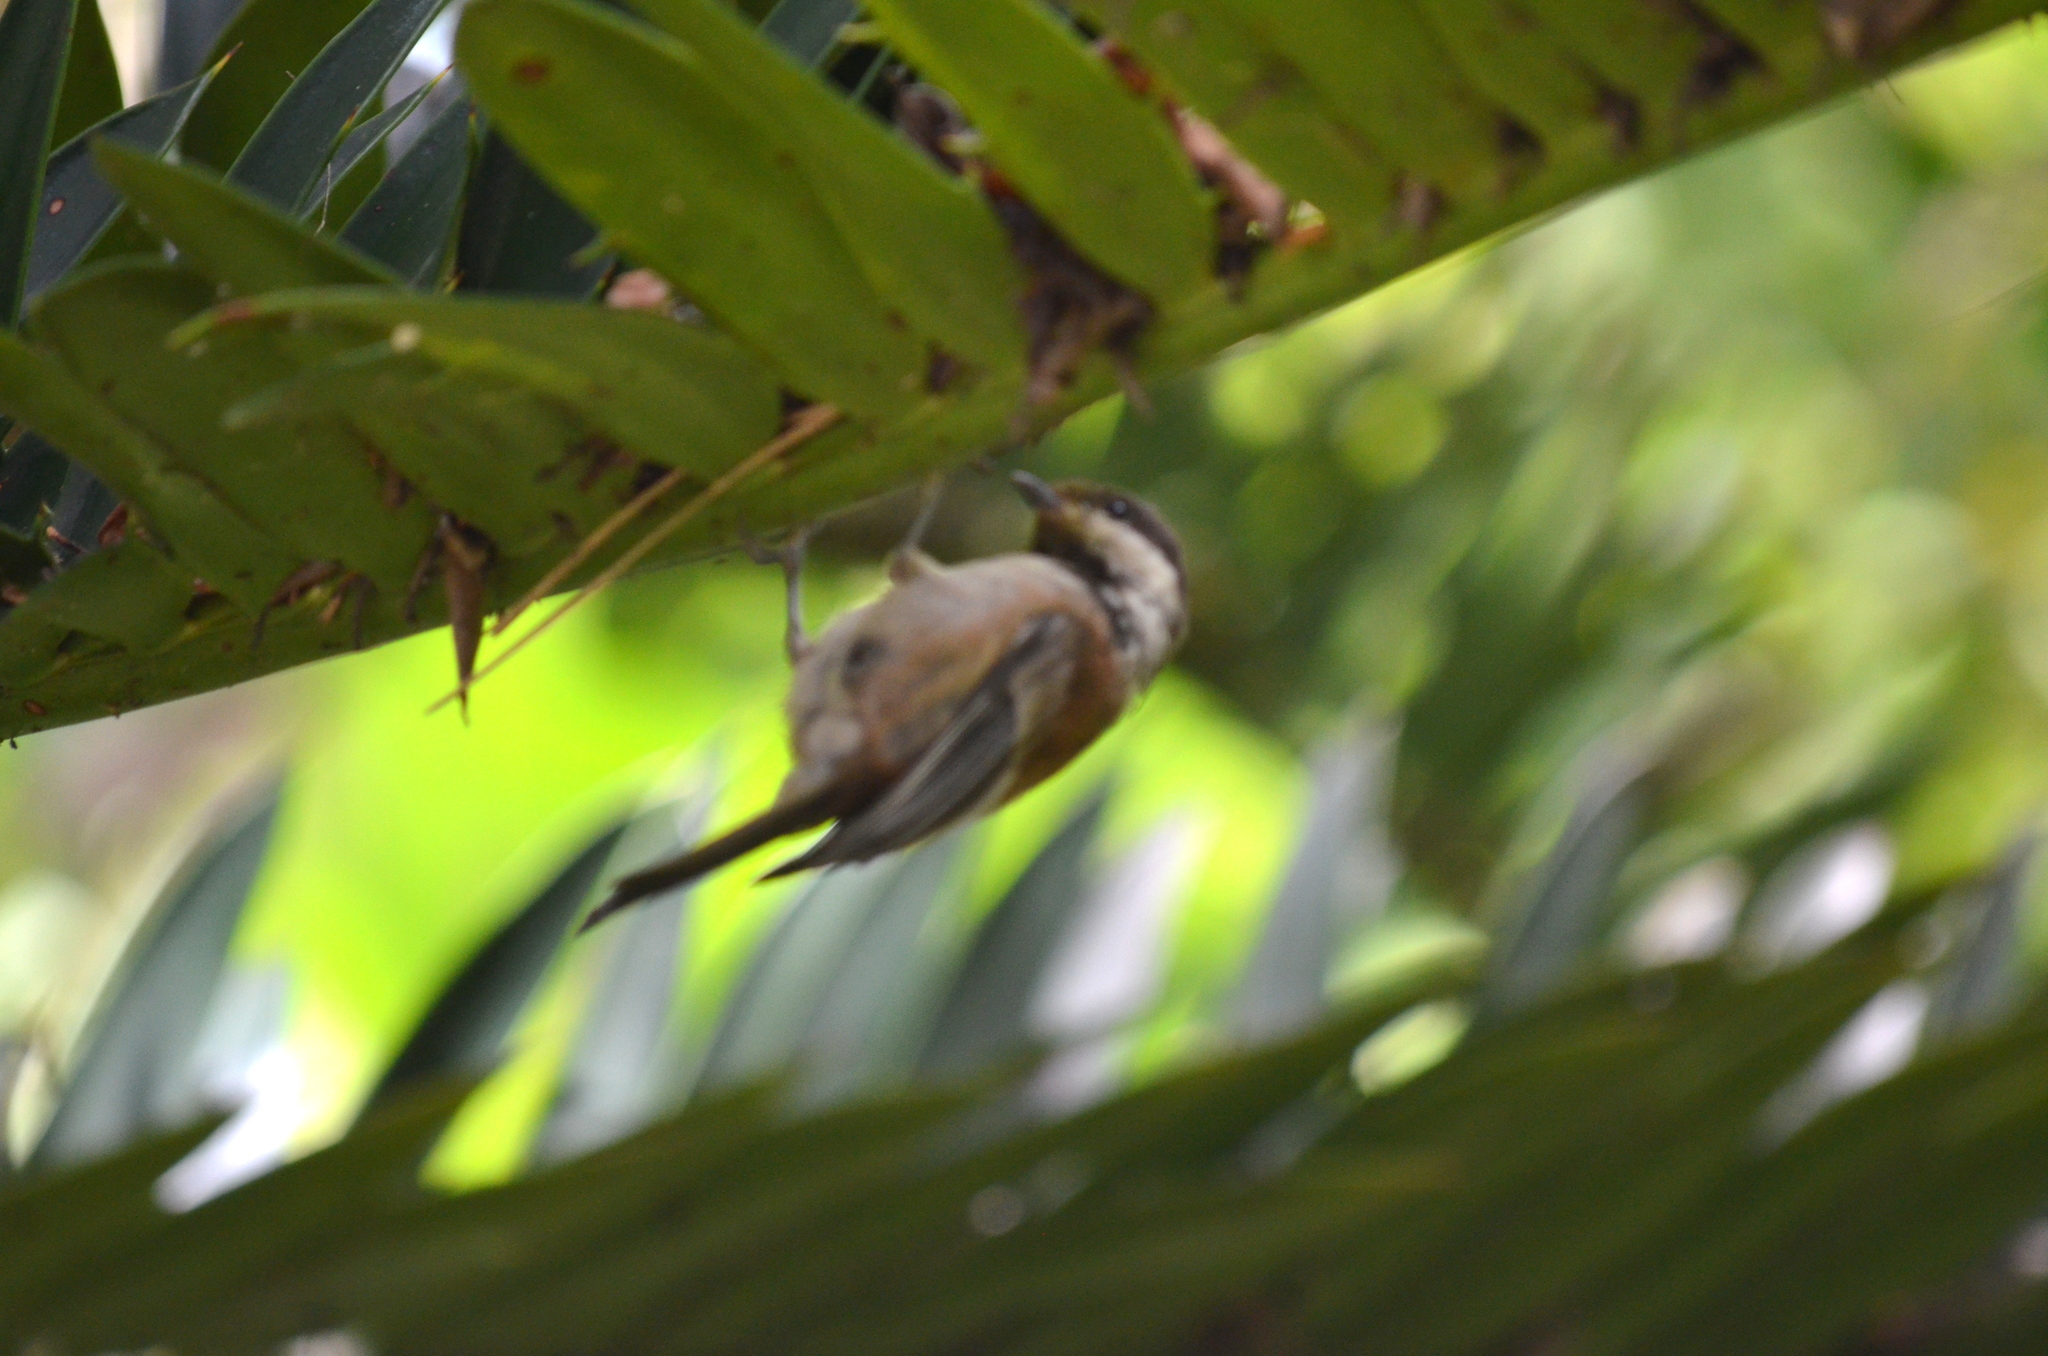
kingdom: Animalia
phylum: Chordata
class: Aves
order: Passeriformes
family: Paridae
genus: Poecile
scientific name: Poecile rufescens
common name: Chestnut-backed chickadee
